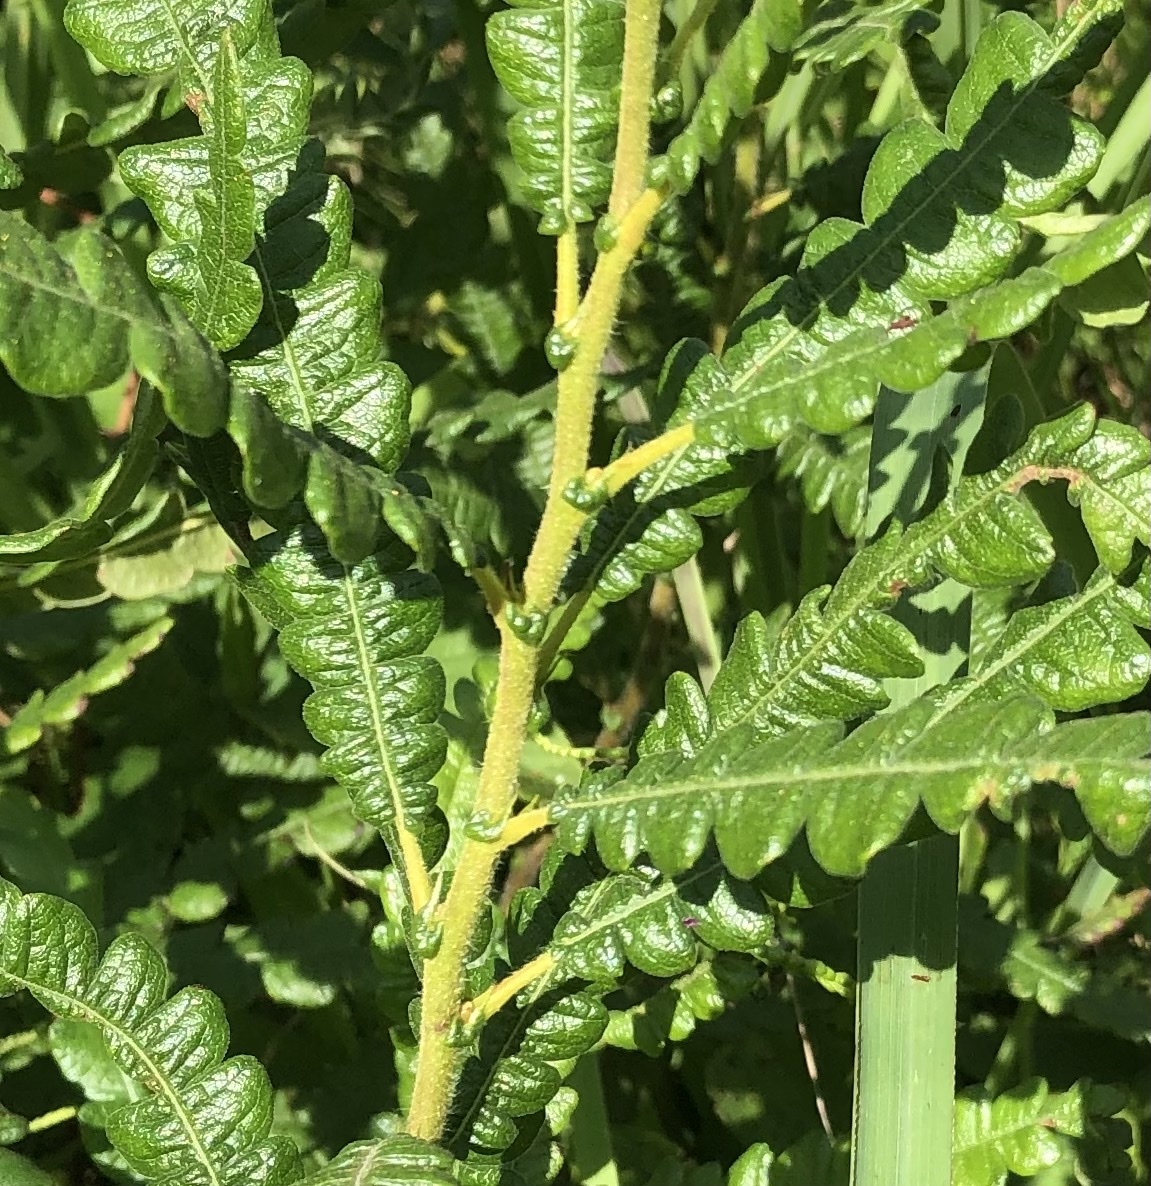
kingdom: Plantae
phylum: Tracheophyta
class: Magnoliopsida
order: Fagales
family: Myricaceae
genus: Comptonia
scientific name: Comptonia peregrina
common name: Sweet-fern
